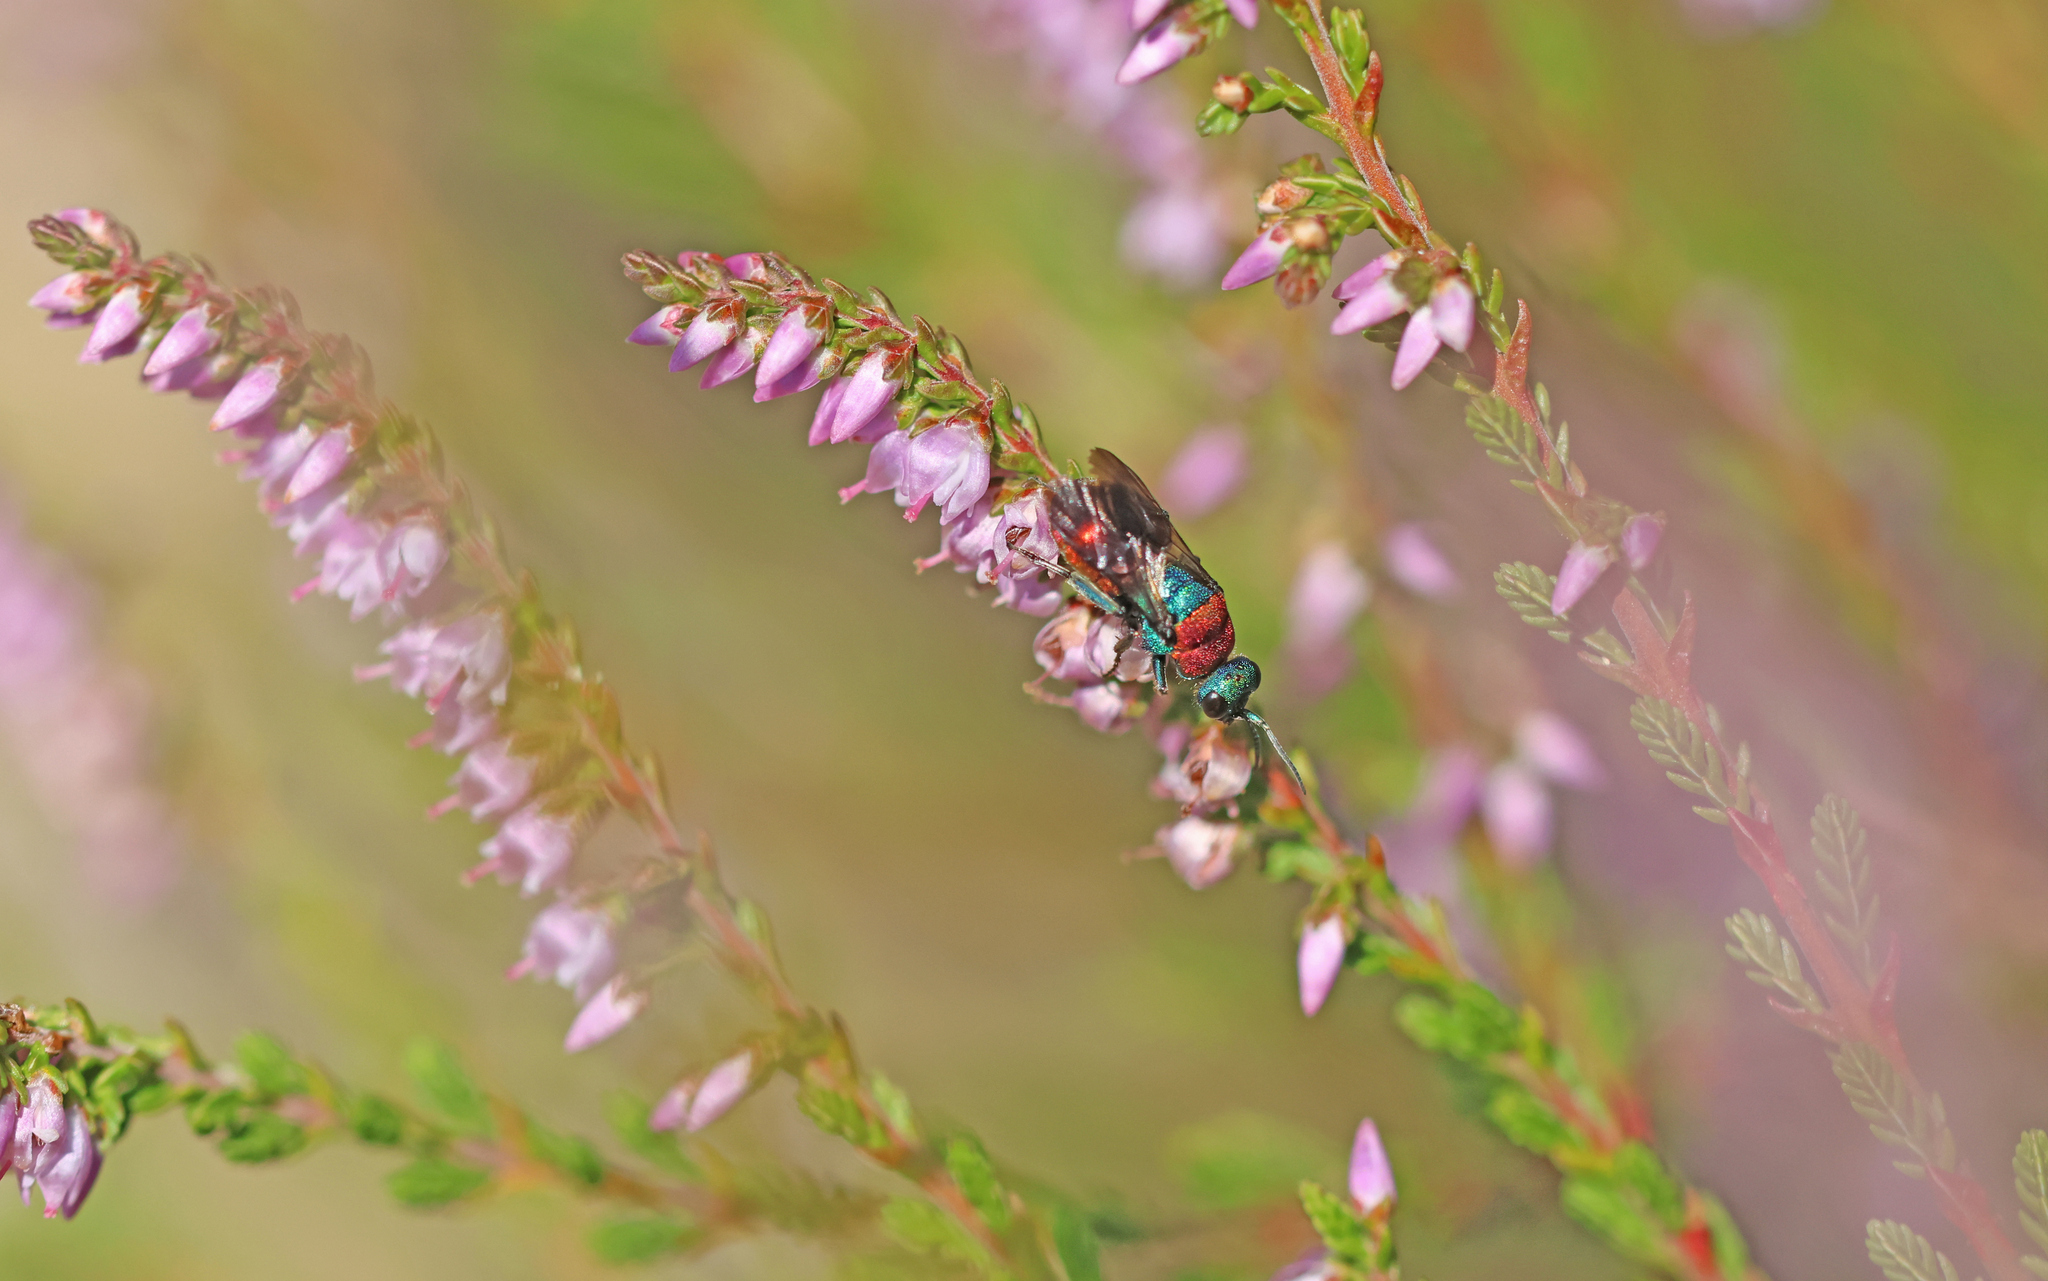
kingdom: Animalia
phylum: Arthropoda
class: Insecta
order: Hymenoptera
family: Chrysididae
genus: Hedychrum
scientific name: Hedychrum rutilans
